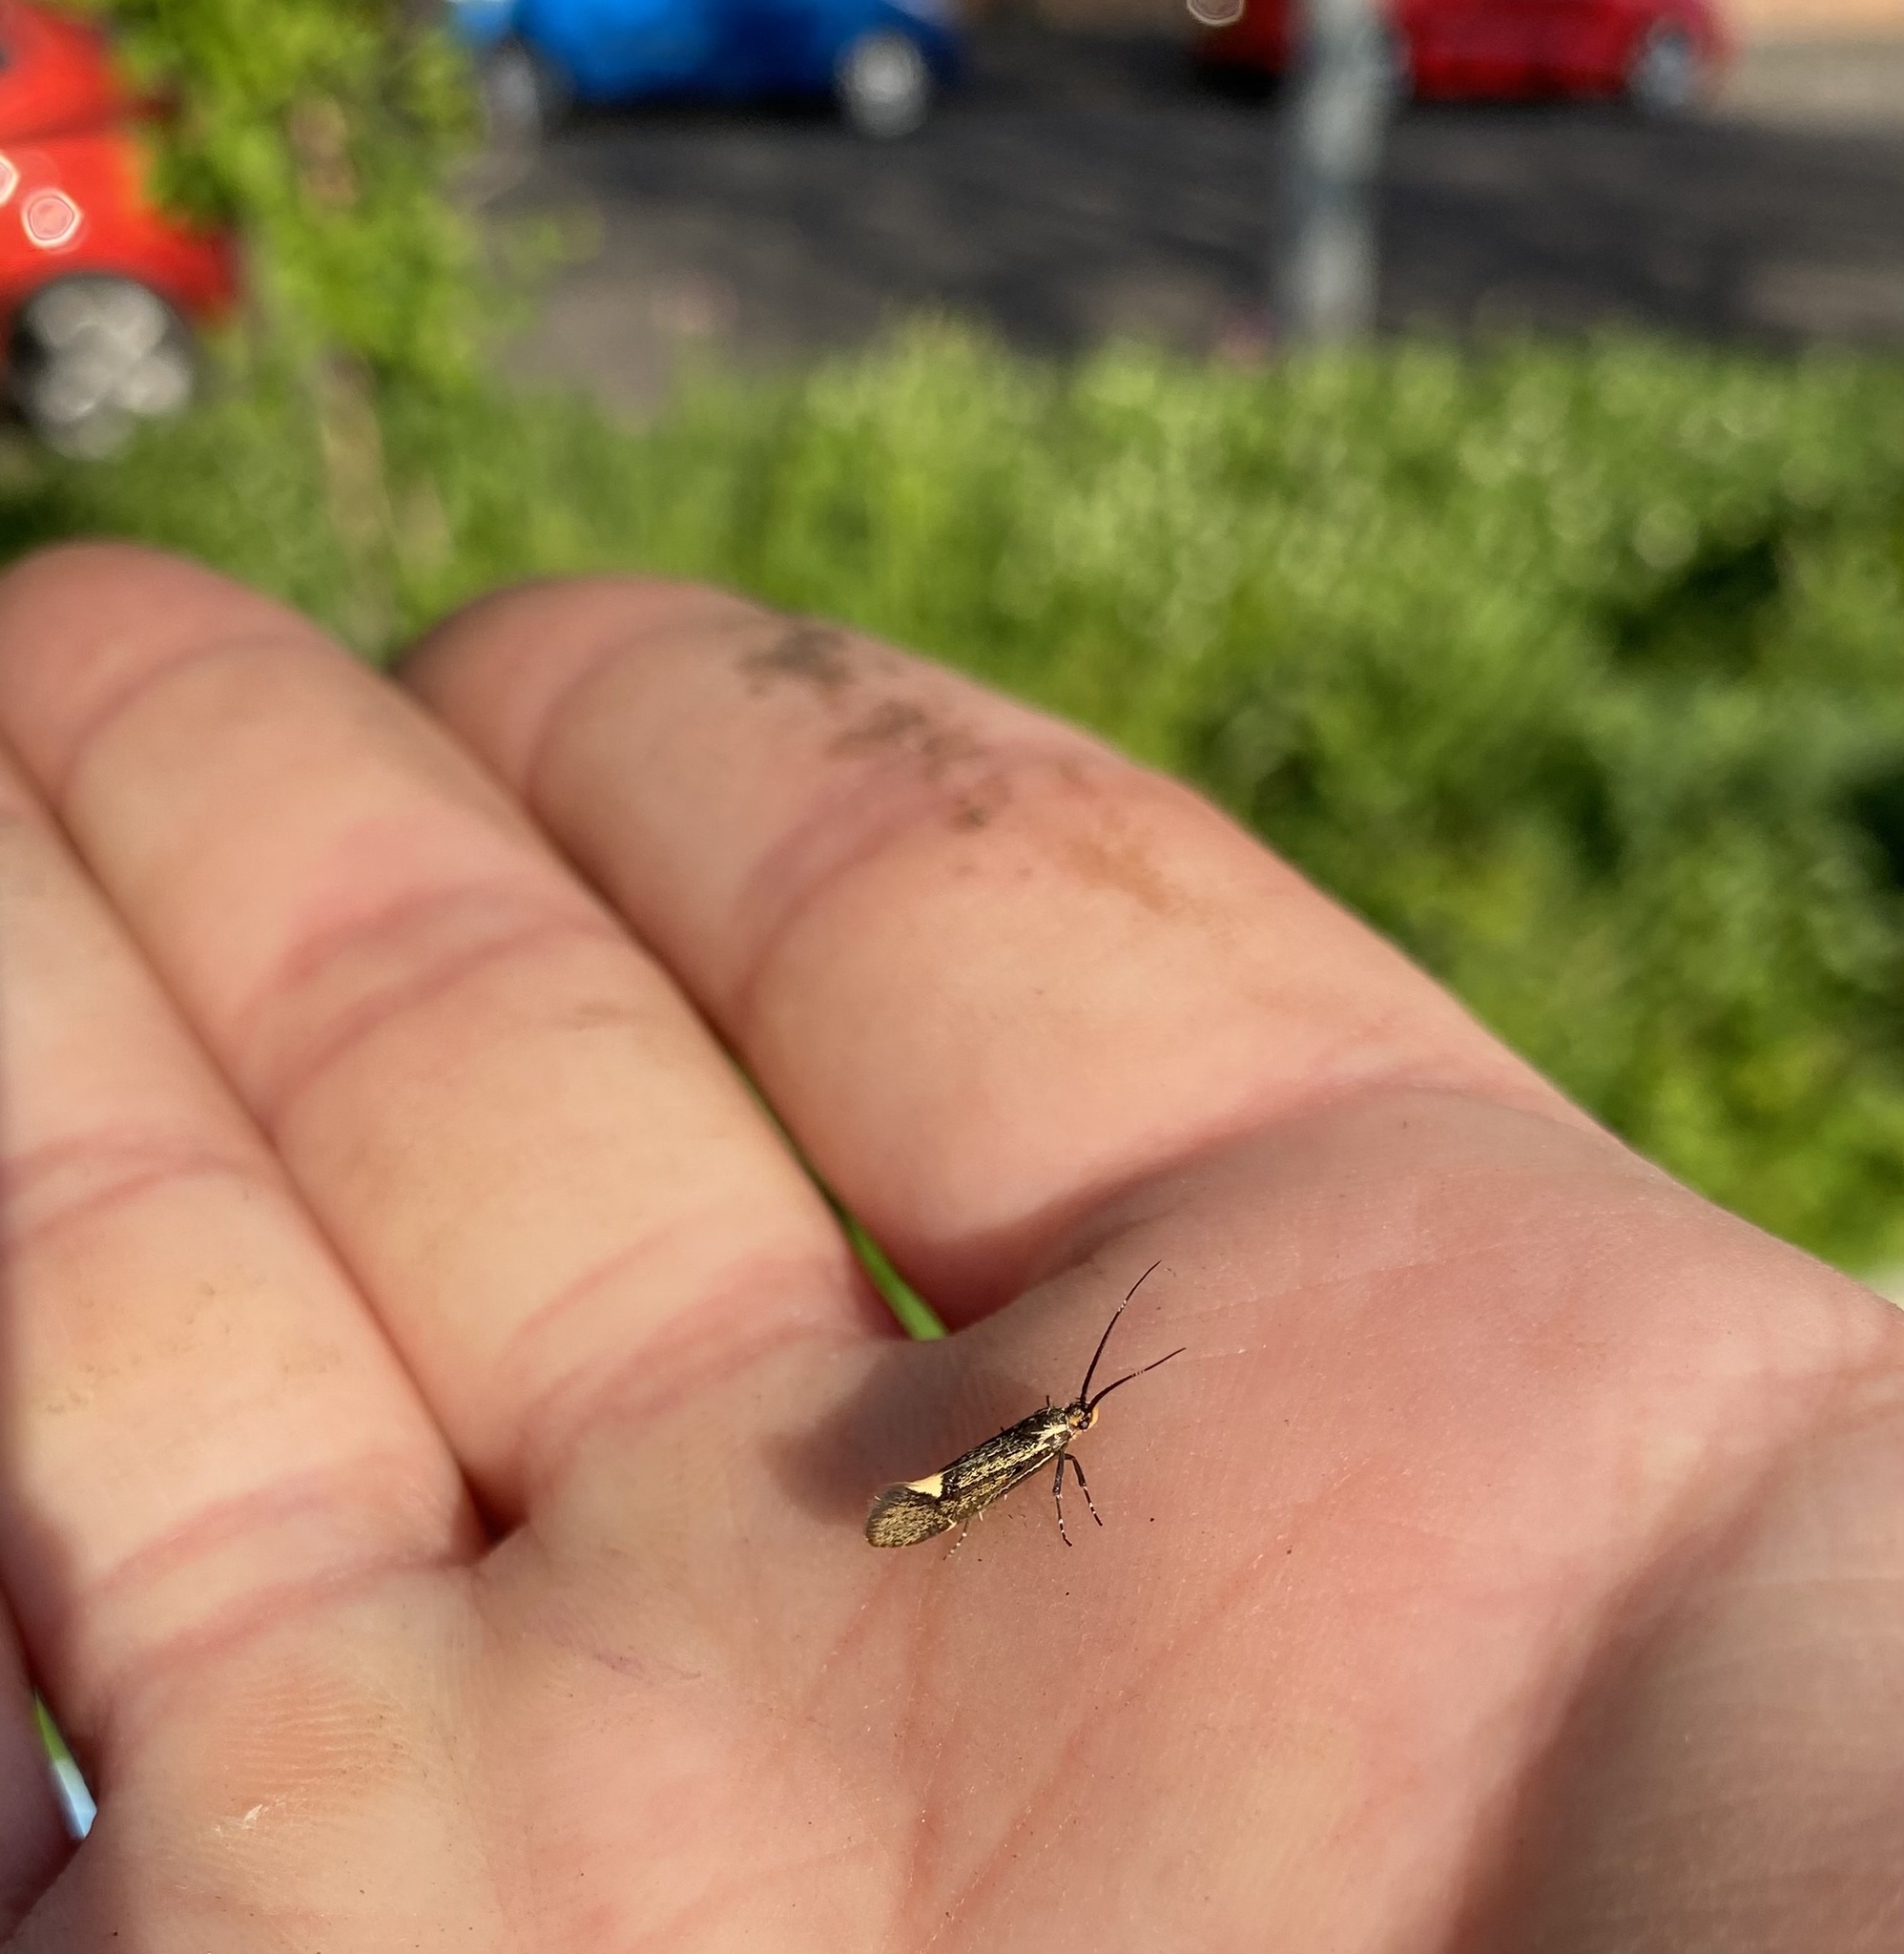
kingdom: Animalia
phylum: Arthropoda
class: Insecta
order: Lepidoptera
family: Oecophoridae
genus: Dafa
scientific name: Dafa Esperia sulphurella
